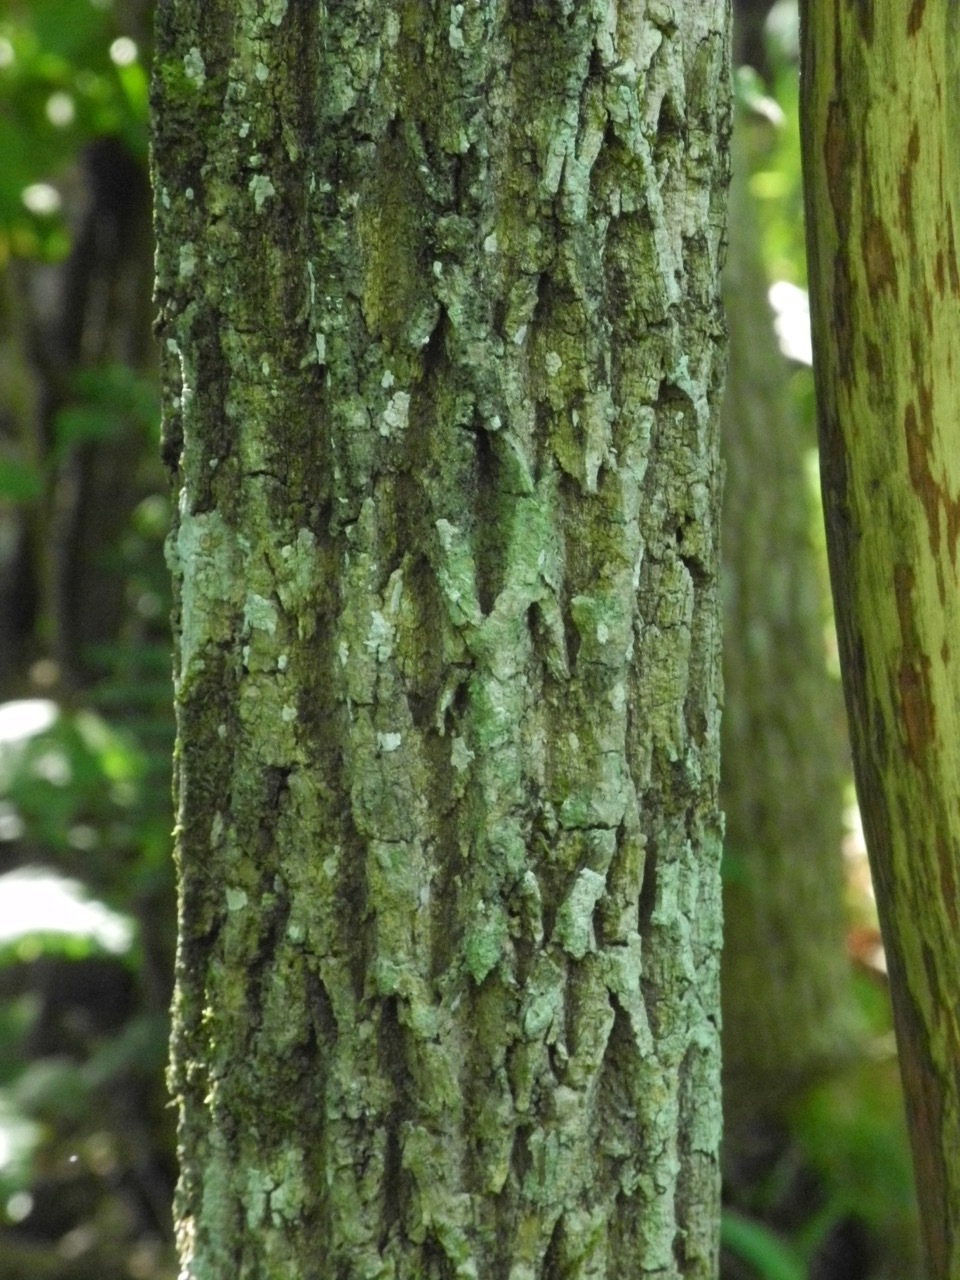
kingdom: Plantae
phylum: Tracheophyta
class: Magnoliopsida
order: Lamiales
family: Oleaceae
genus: Fraxinus
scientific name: Fraxinus americana
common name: White ash
